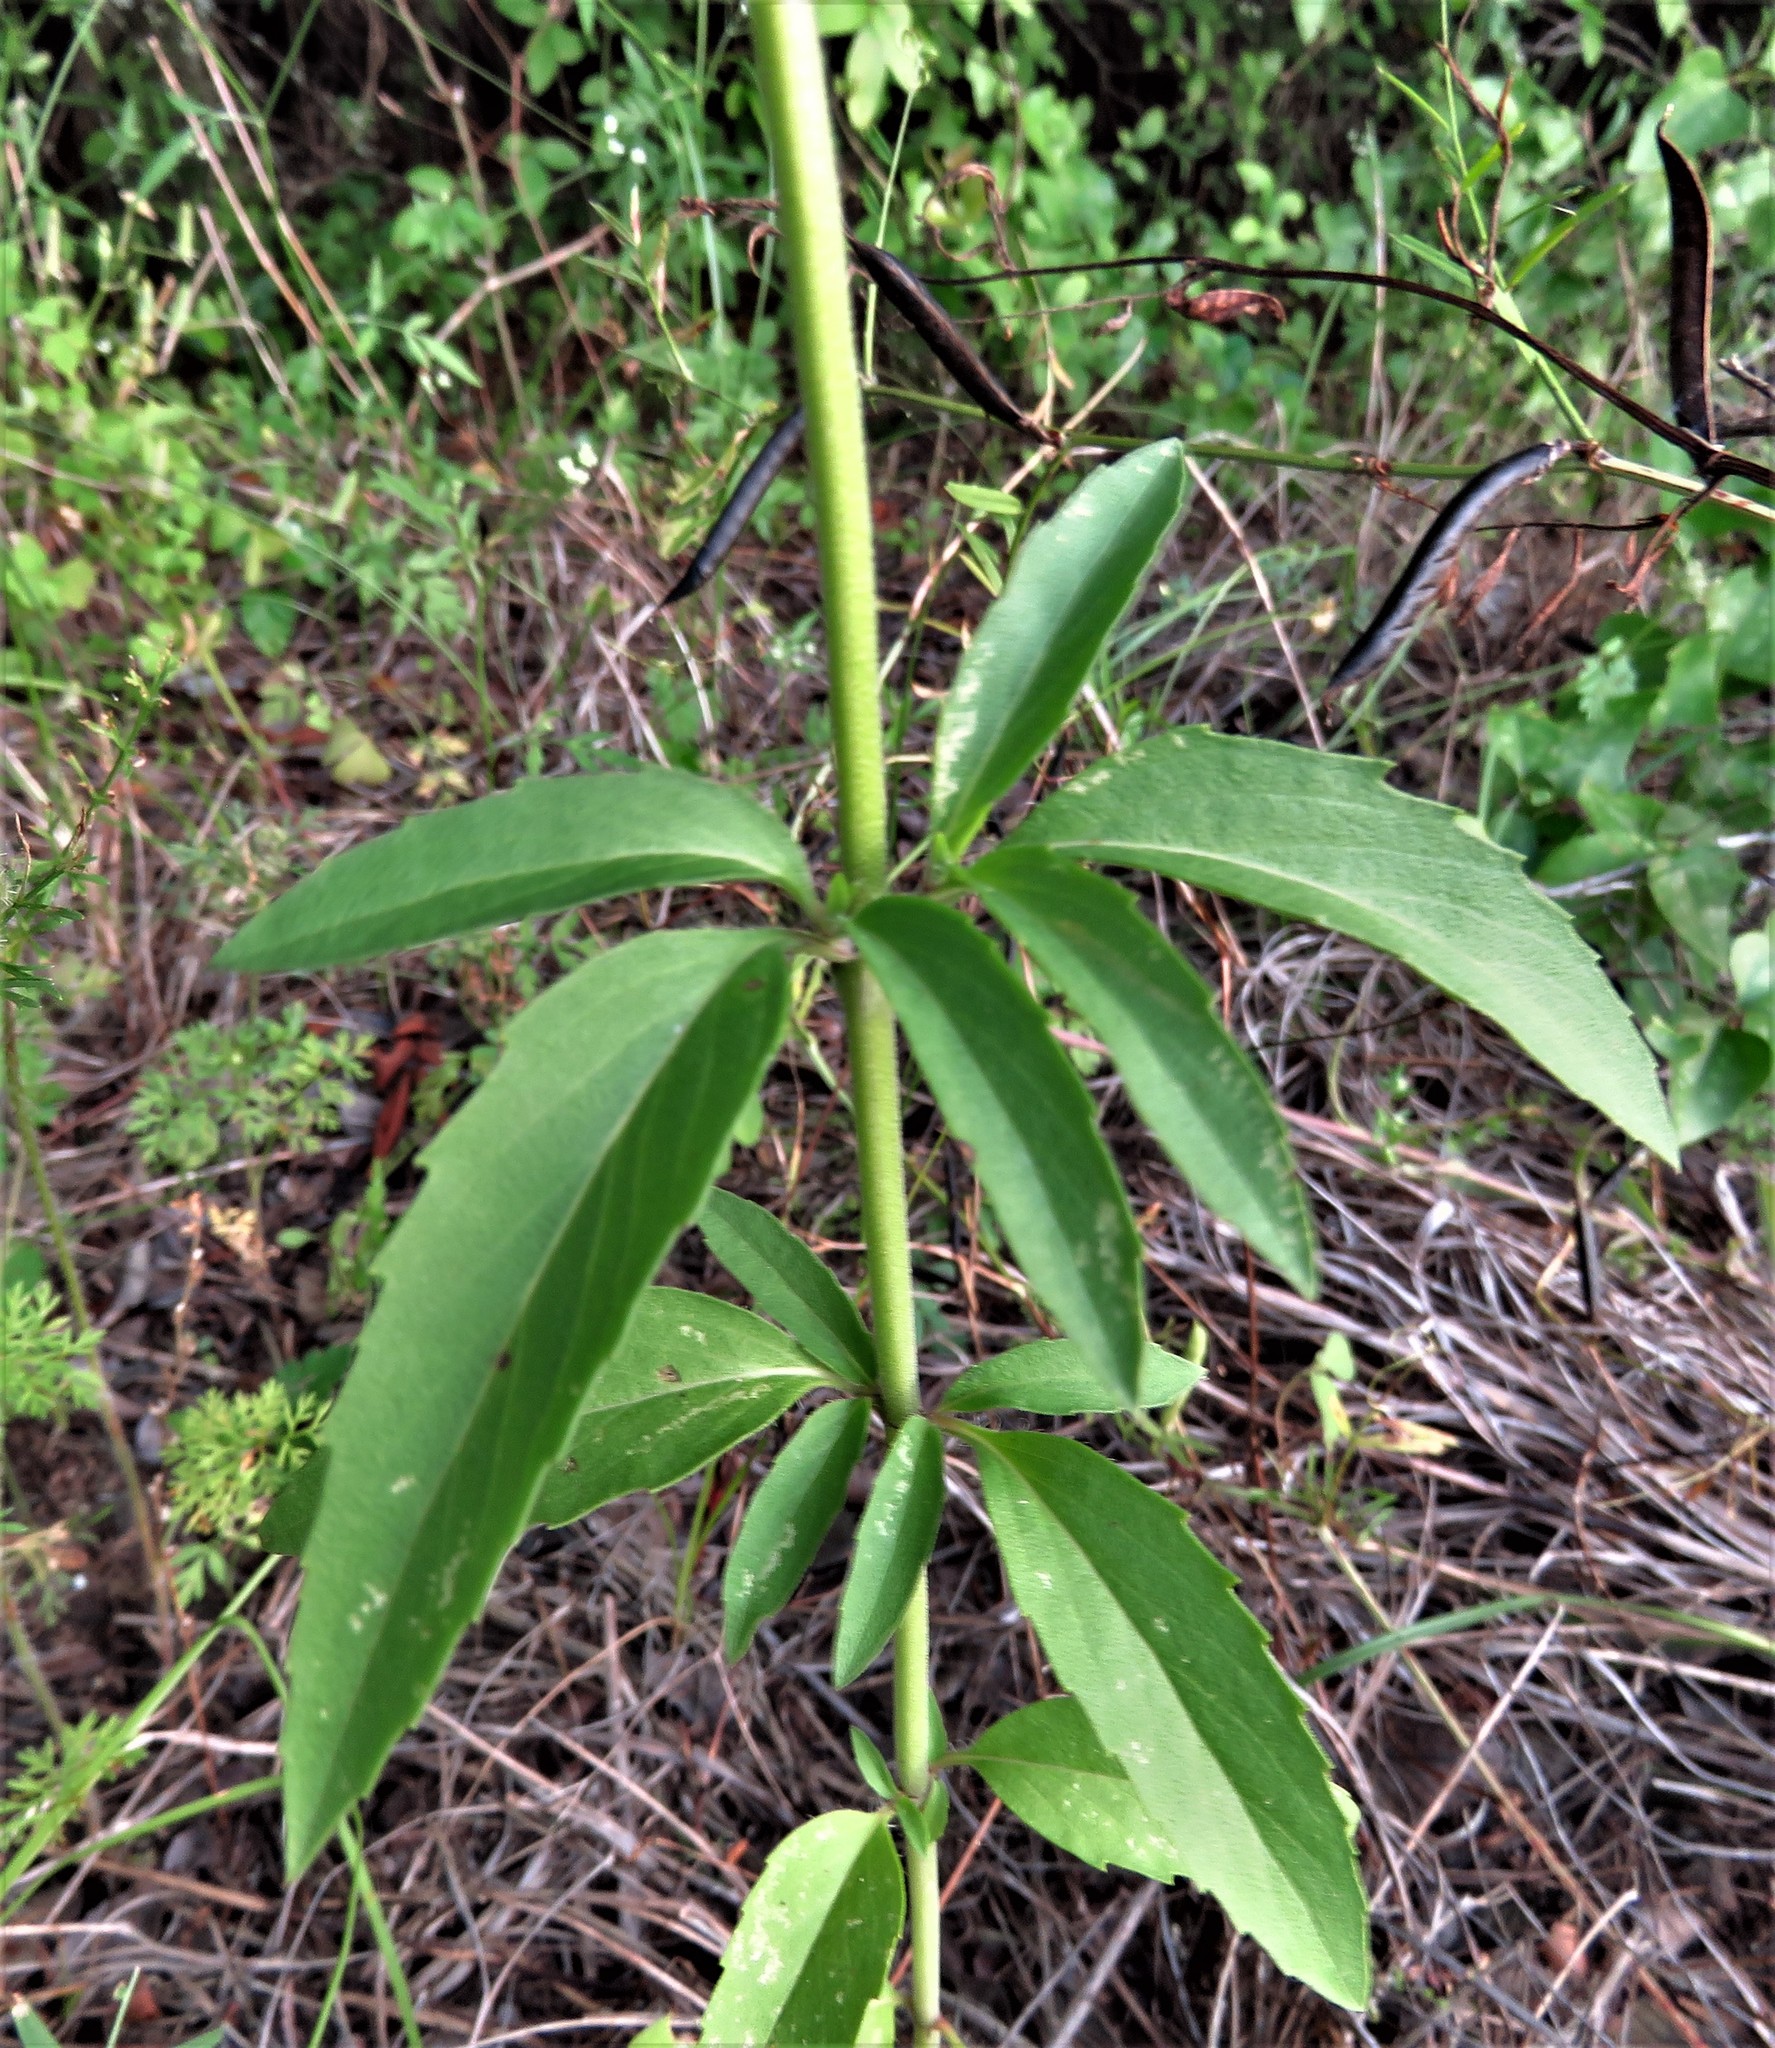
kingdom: Plantae
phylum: Tracheophyta
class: Magnoliopsida
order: Lamiales
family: Lamiaceae
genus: Monarda
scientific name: Monarda citriodora
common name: Lemon beebalm
